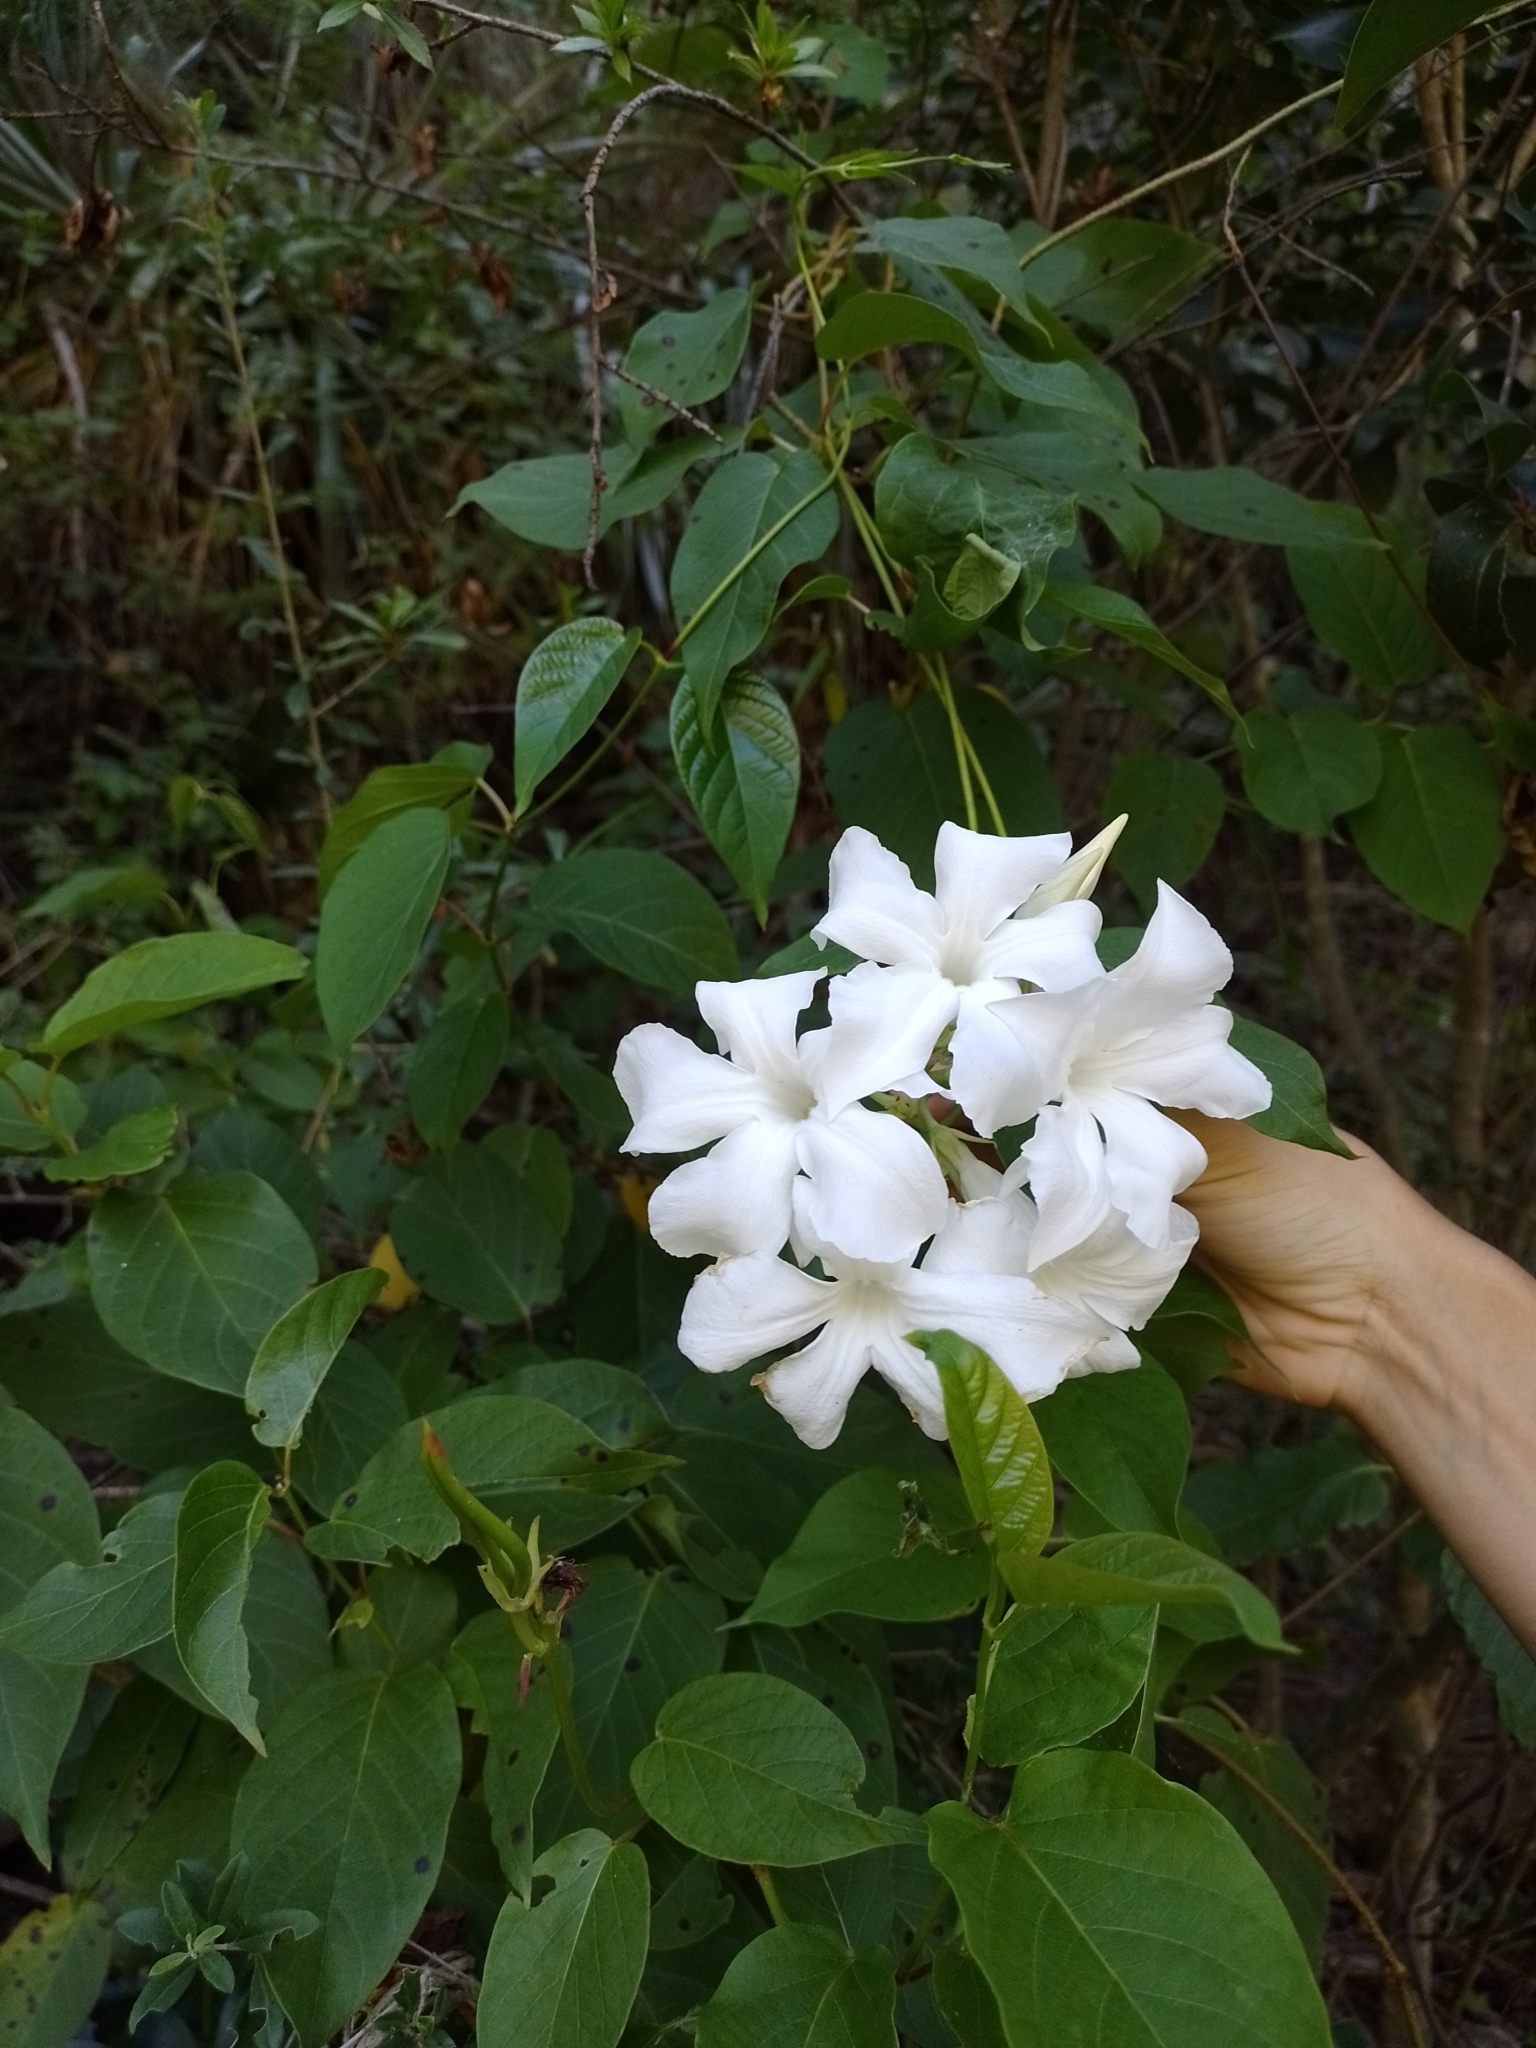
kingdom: Plantae
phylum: Tracheophyta
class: Magnoliopsida
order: Gentianales
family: Apocynaceae
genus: Mandevilla
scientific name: Mandevilla laxa
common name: Chilean-jasmine
